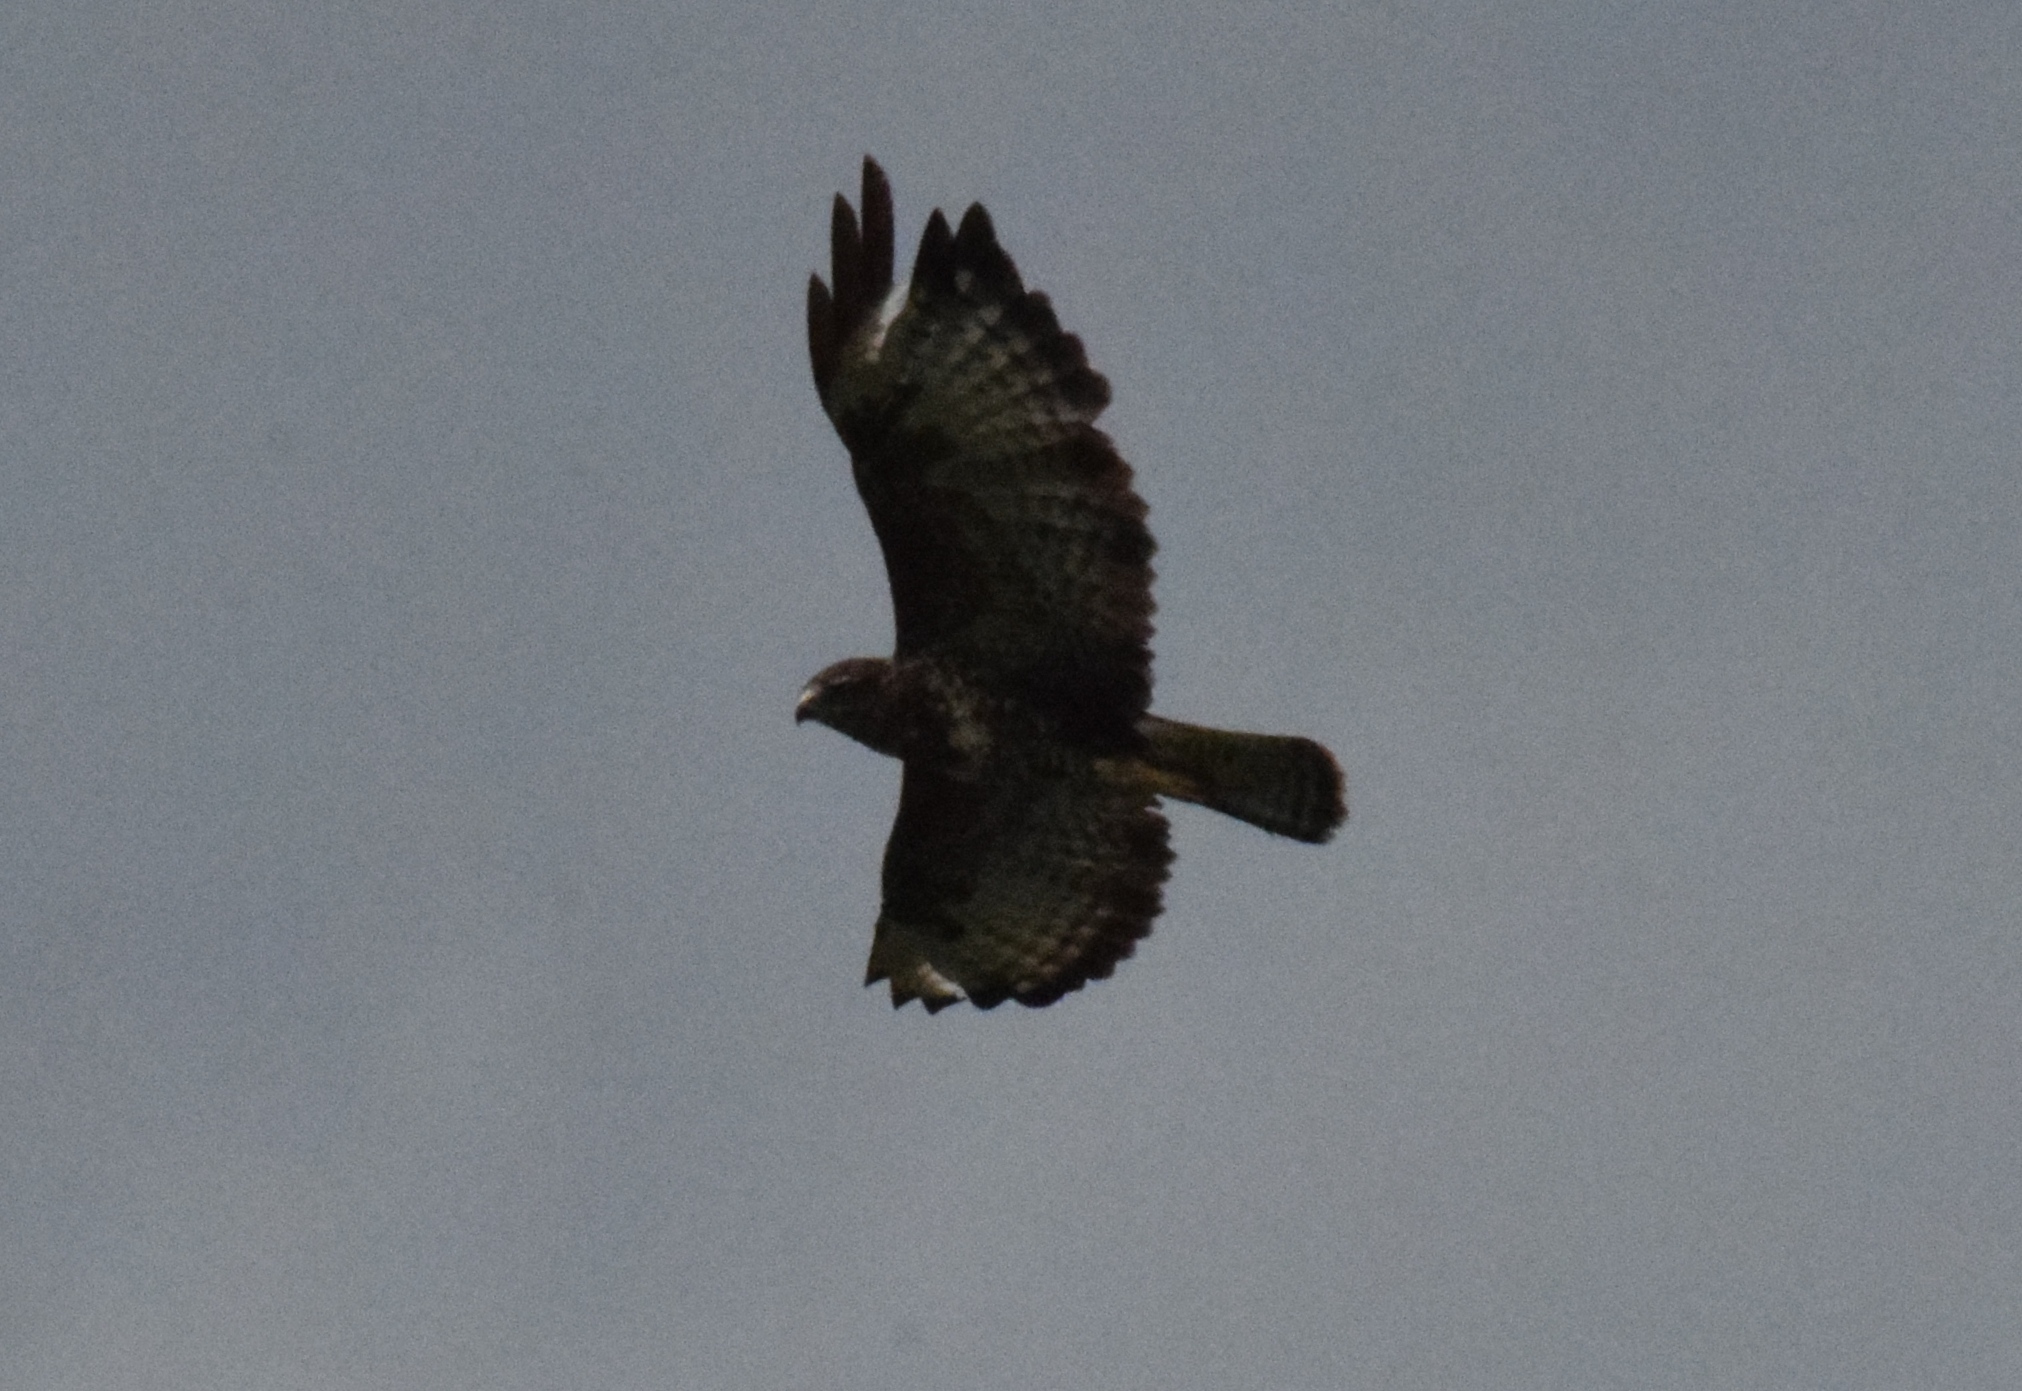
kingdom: Animalia
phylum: Chordata
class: Aves
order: Accipitriformes
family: Accipitridae
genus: Buteo
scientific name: Buteo buteo
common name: Common buzzard
